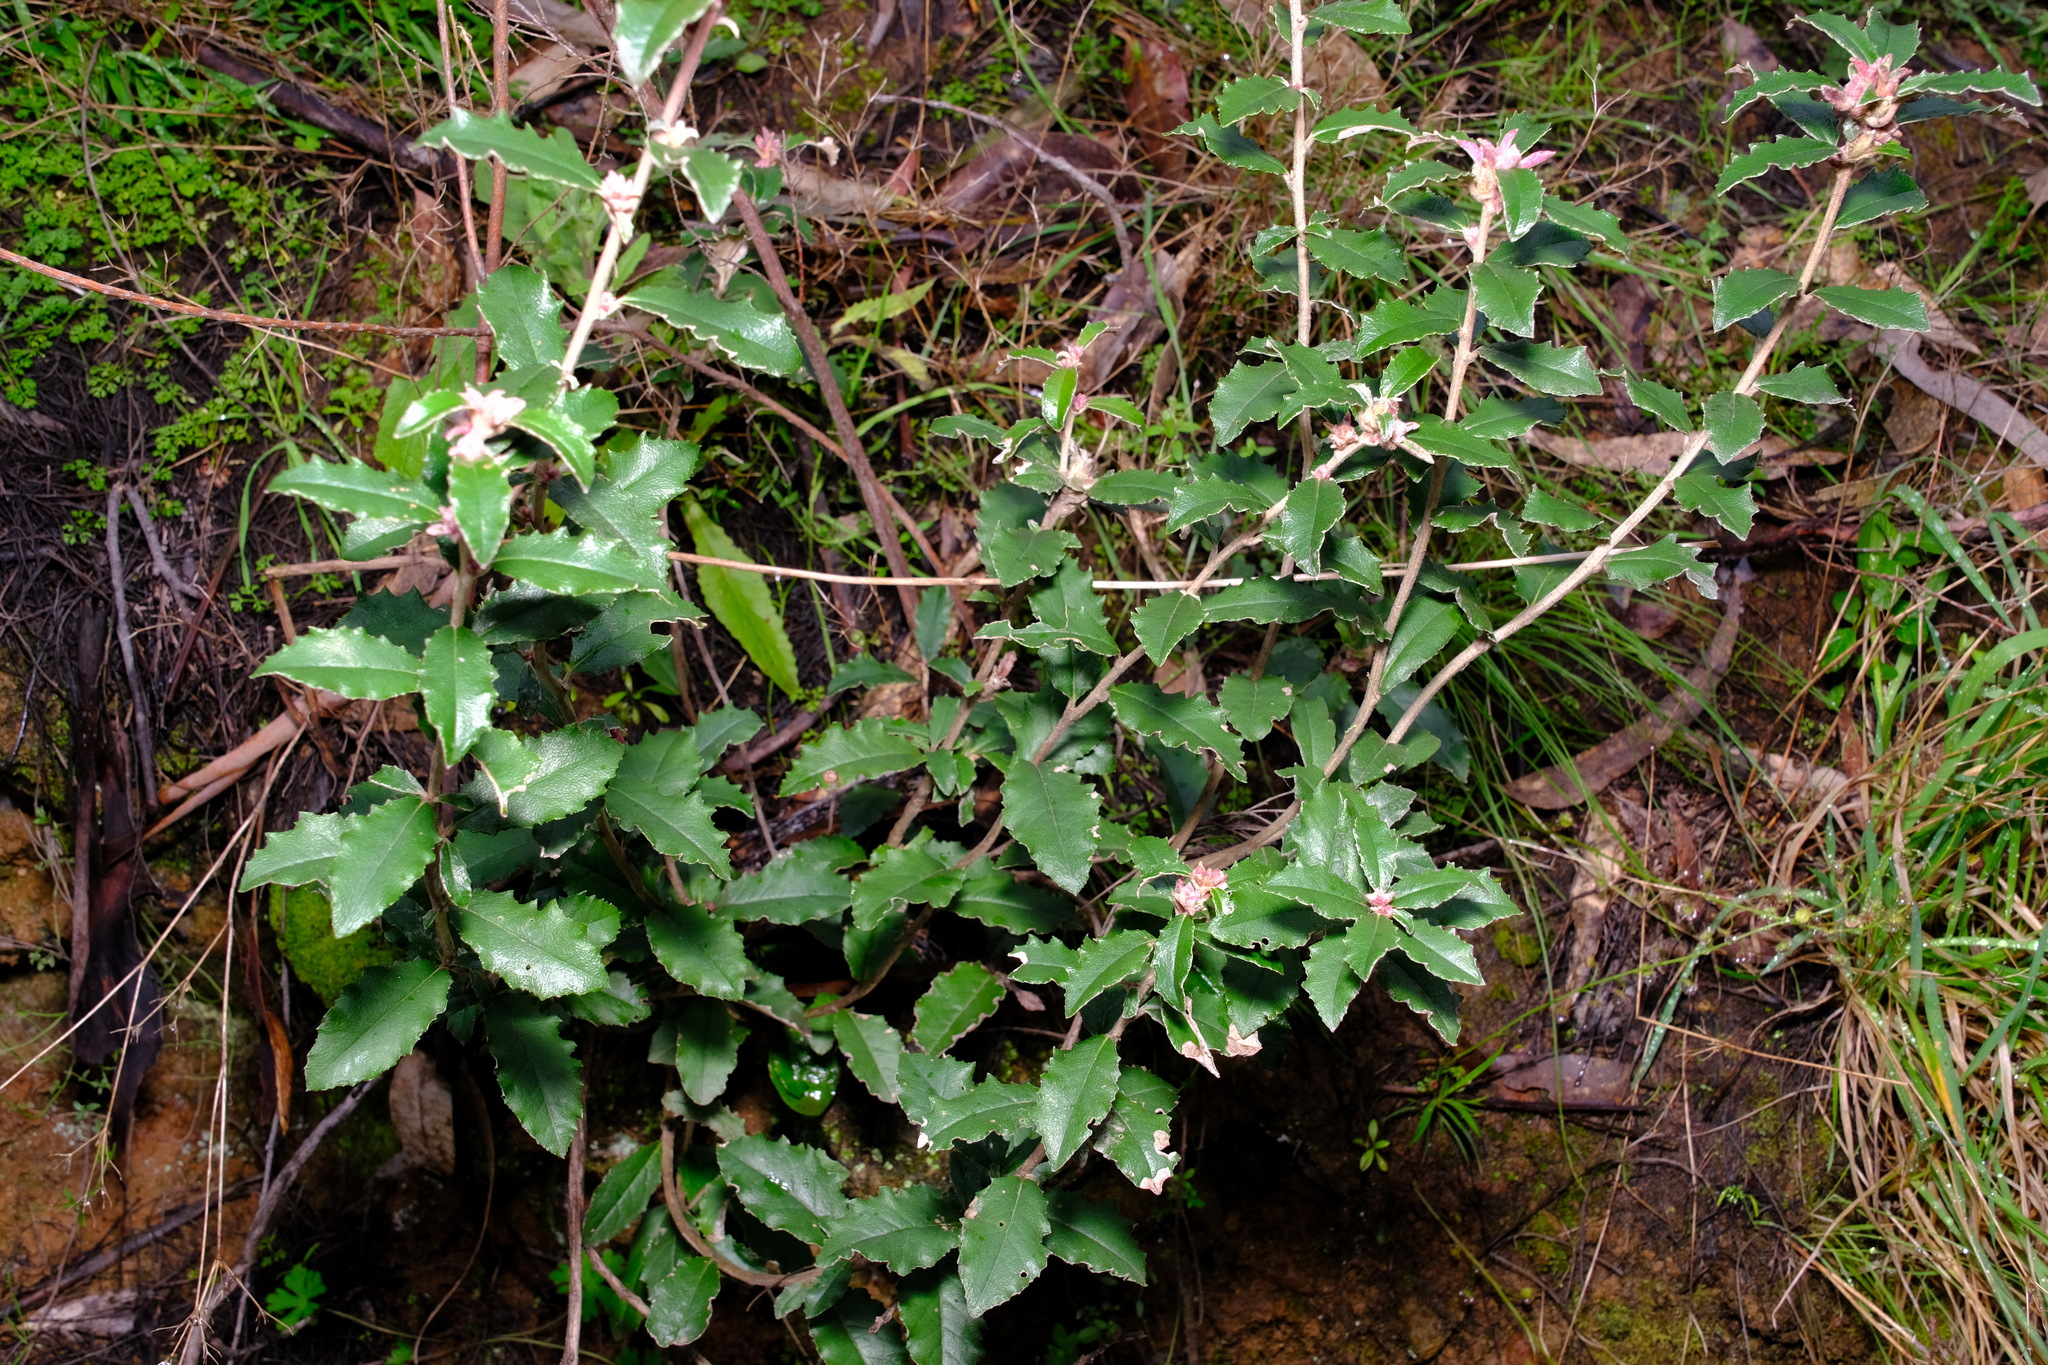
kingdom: Plantae
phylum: Tracheophyta
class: Magnoliopsida
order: Asterales
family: Asteraceae
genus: Olearia
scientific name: Olearia erubescens
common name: Moth daisybush
